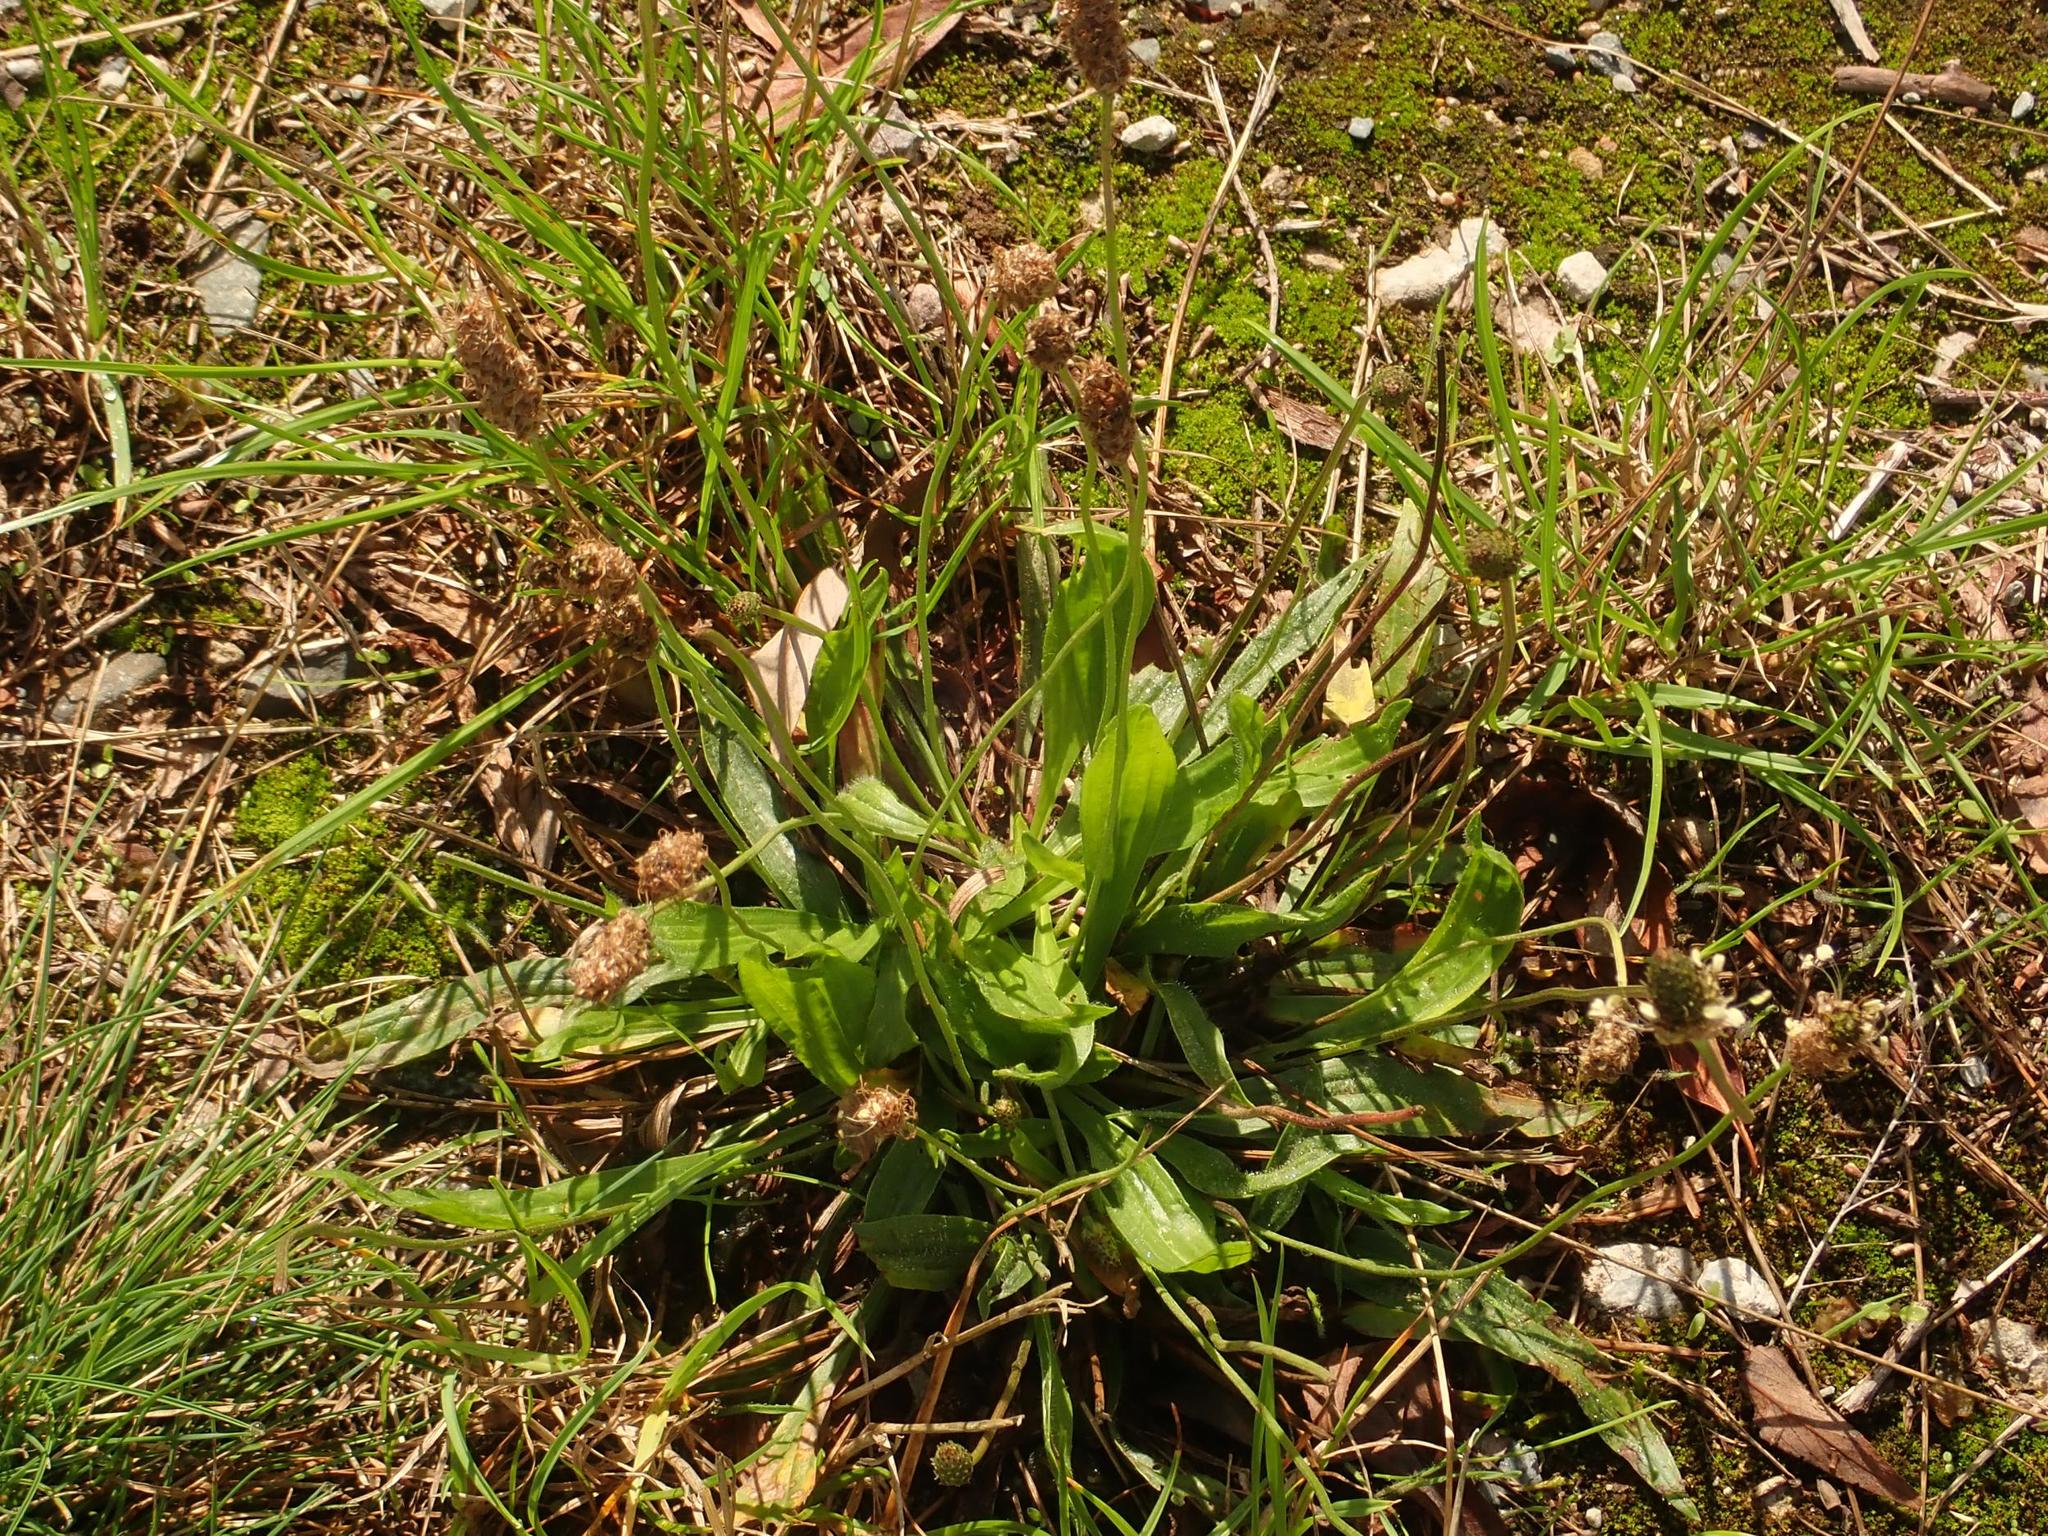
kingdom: Plantae
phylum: Tracheophyta
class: Magnoliopsida
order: Lamiales
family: Plantaginaceae
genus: Plantago
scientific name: Plantago lanceolata
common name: Ribwort plantain
